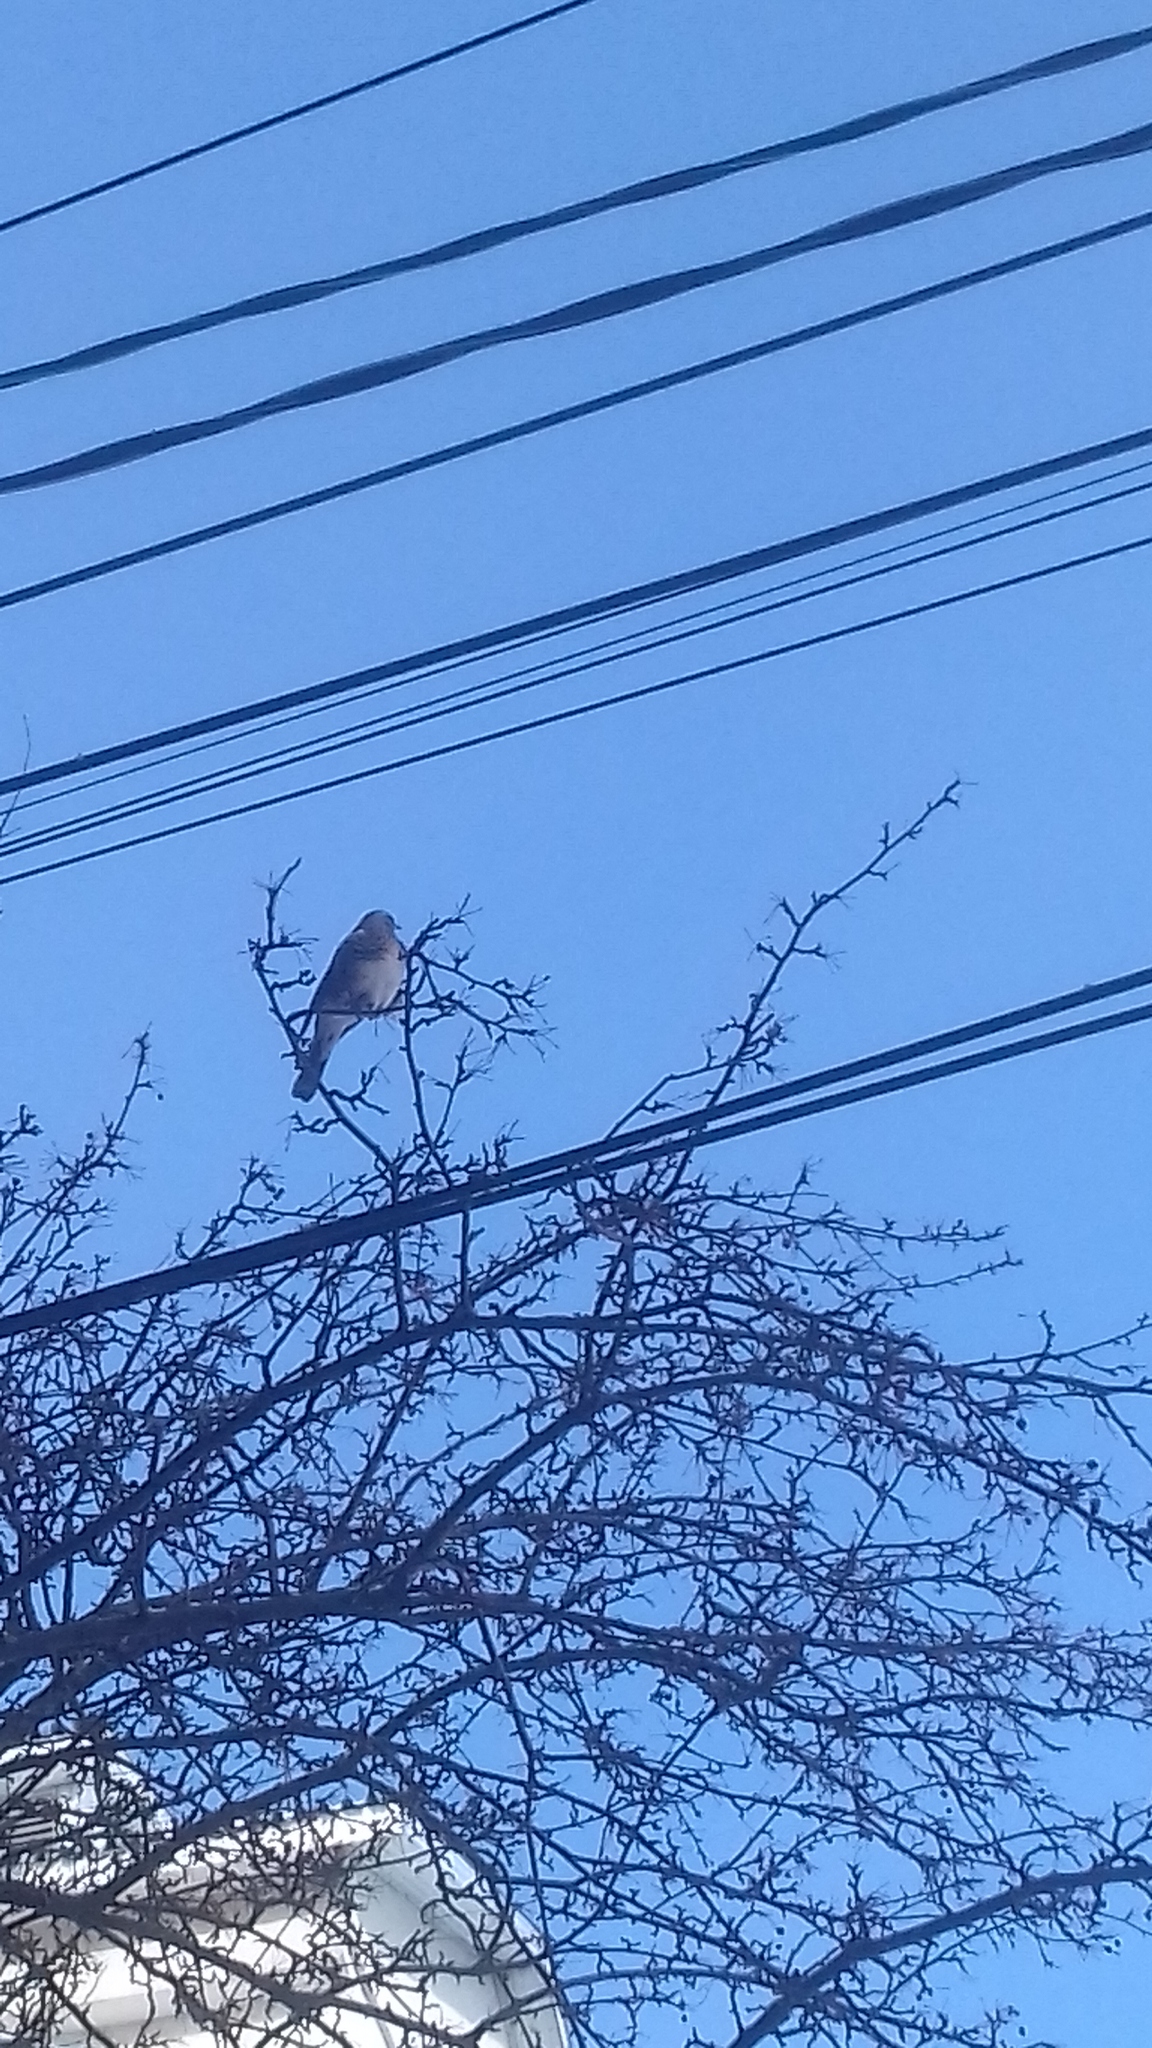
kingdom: Animalia
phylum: Chordata
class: Aves
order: Passeriformes
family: Turdidae
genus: Turdus
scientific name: Turdus pilaris
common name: Fieldfare
